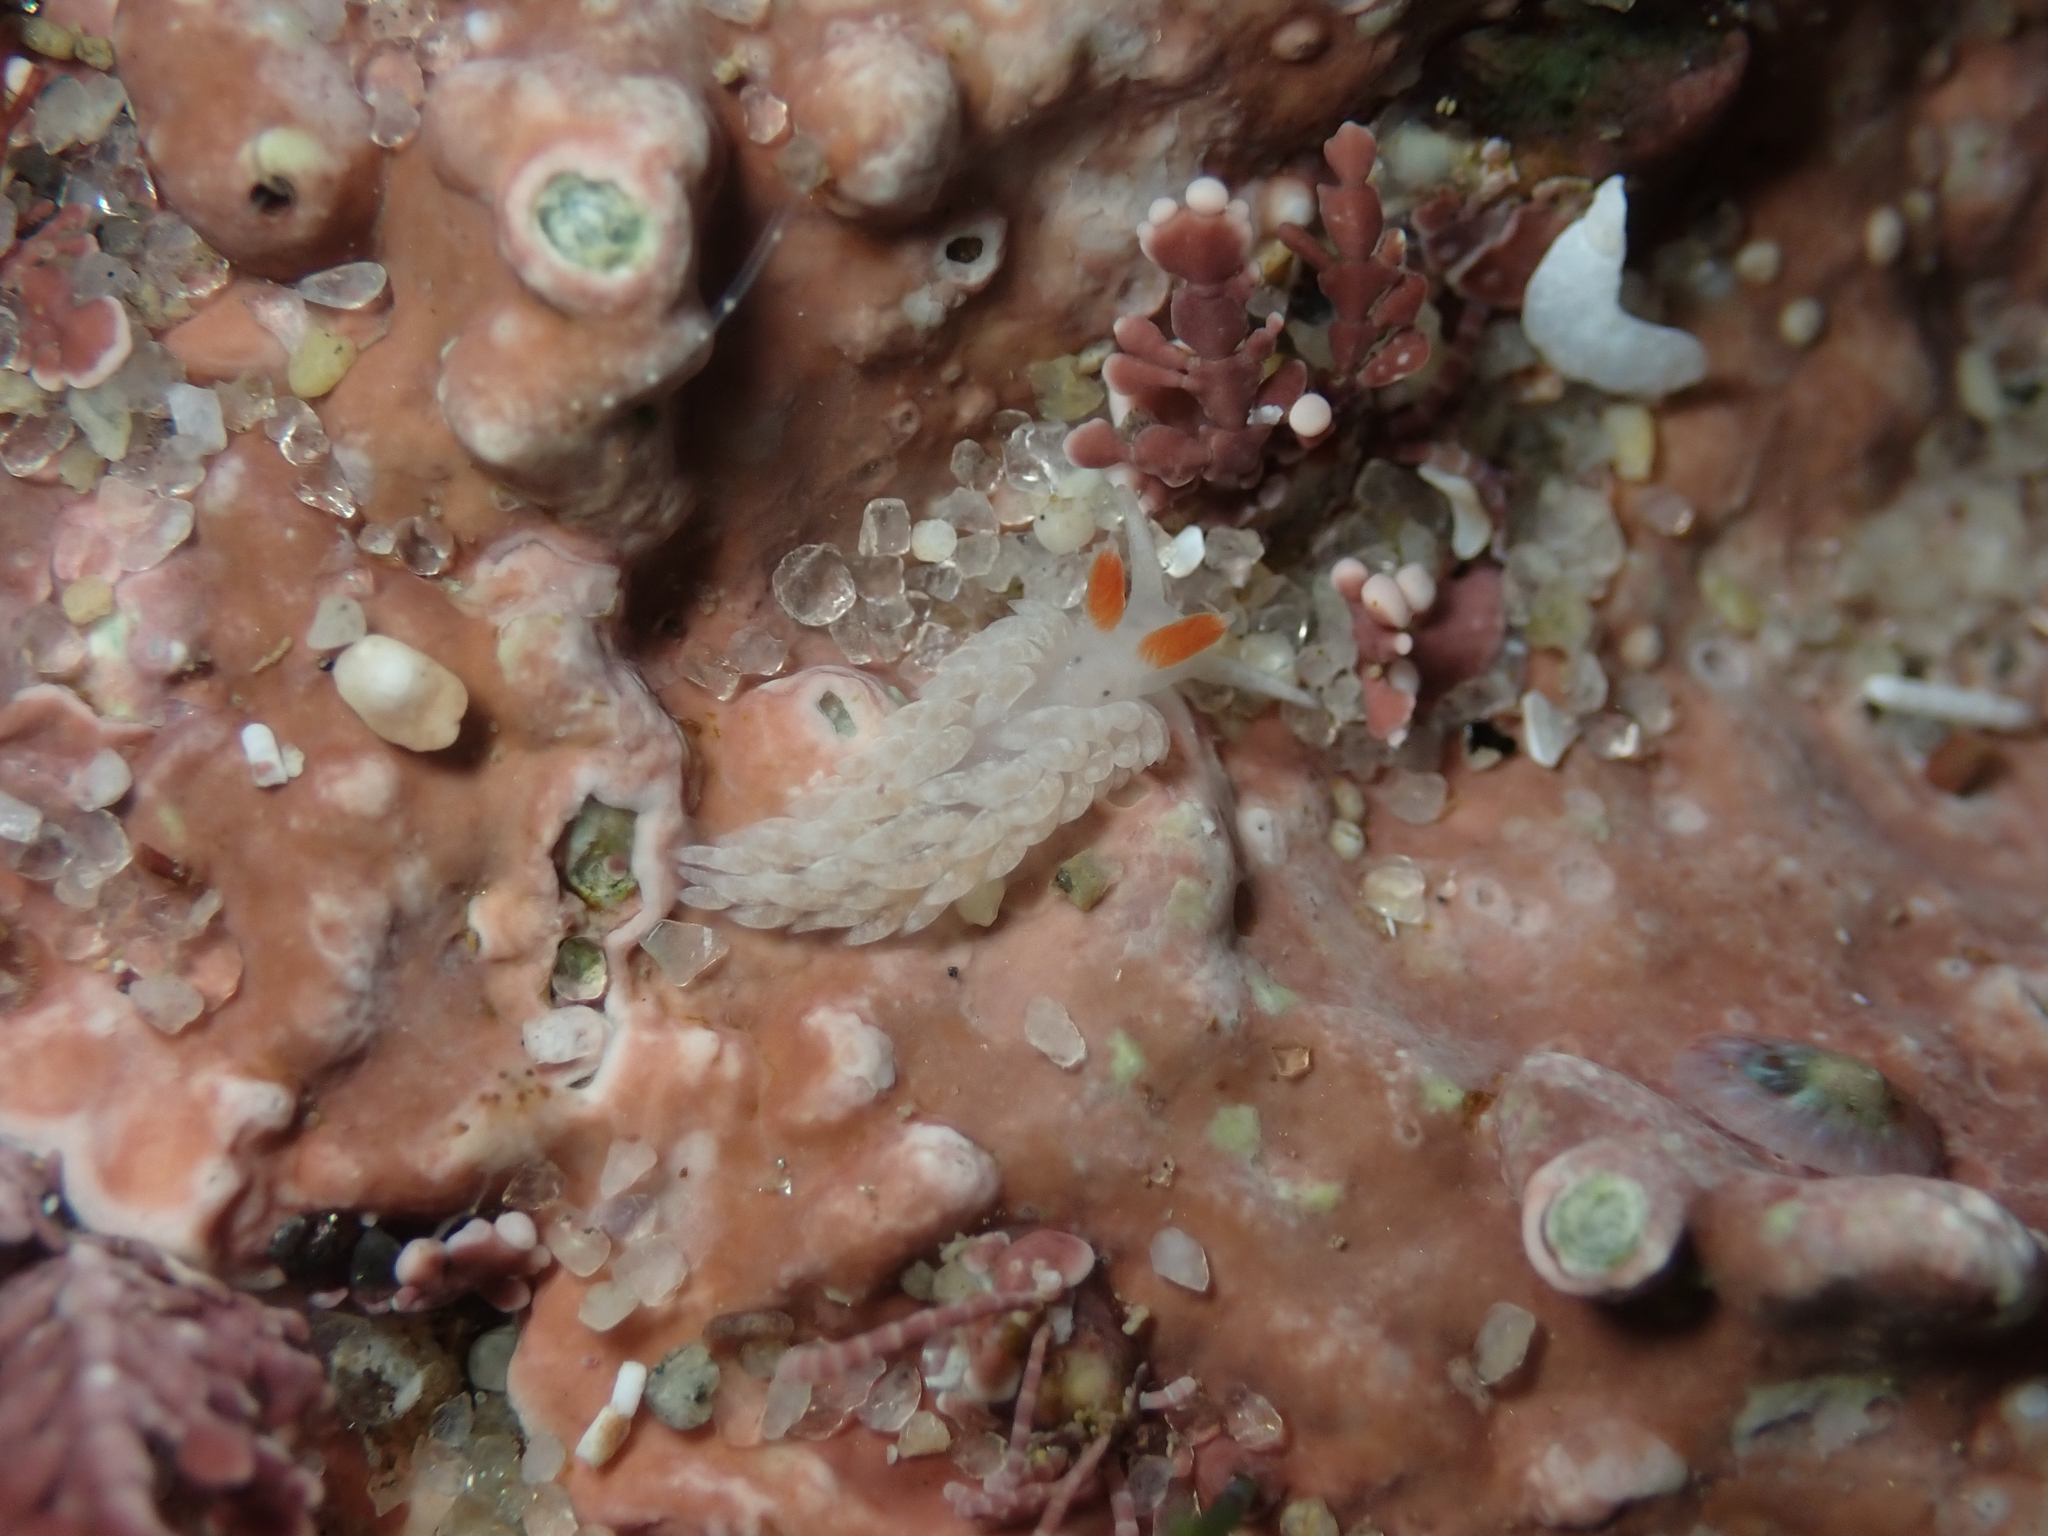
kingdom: Animalia
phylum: Mollusca
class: Gastropoda
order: Nudibranchia
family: Aeolidiidae
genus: Anteaeolidiella
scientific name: Anteaeolidiella oliviae
